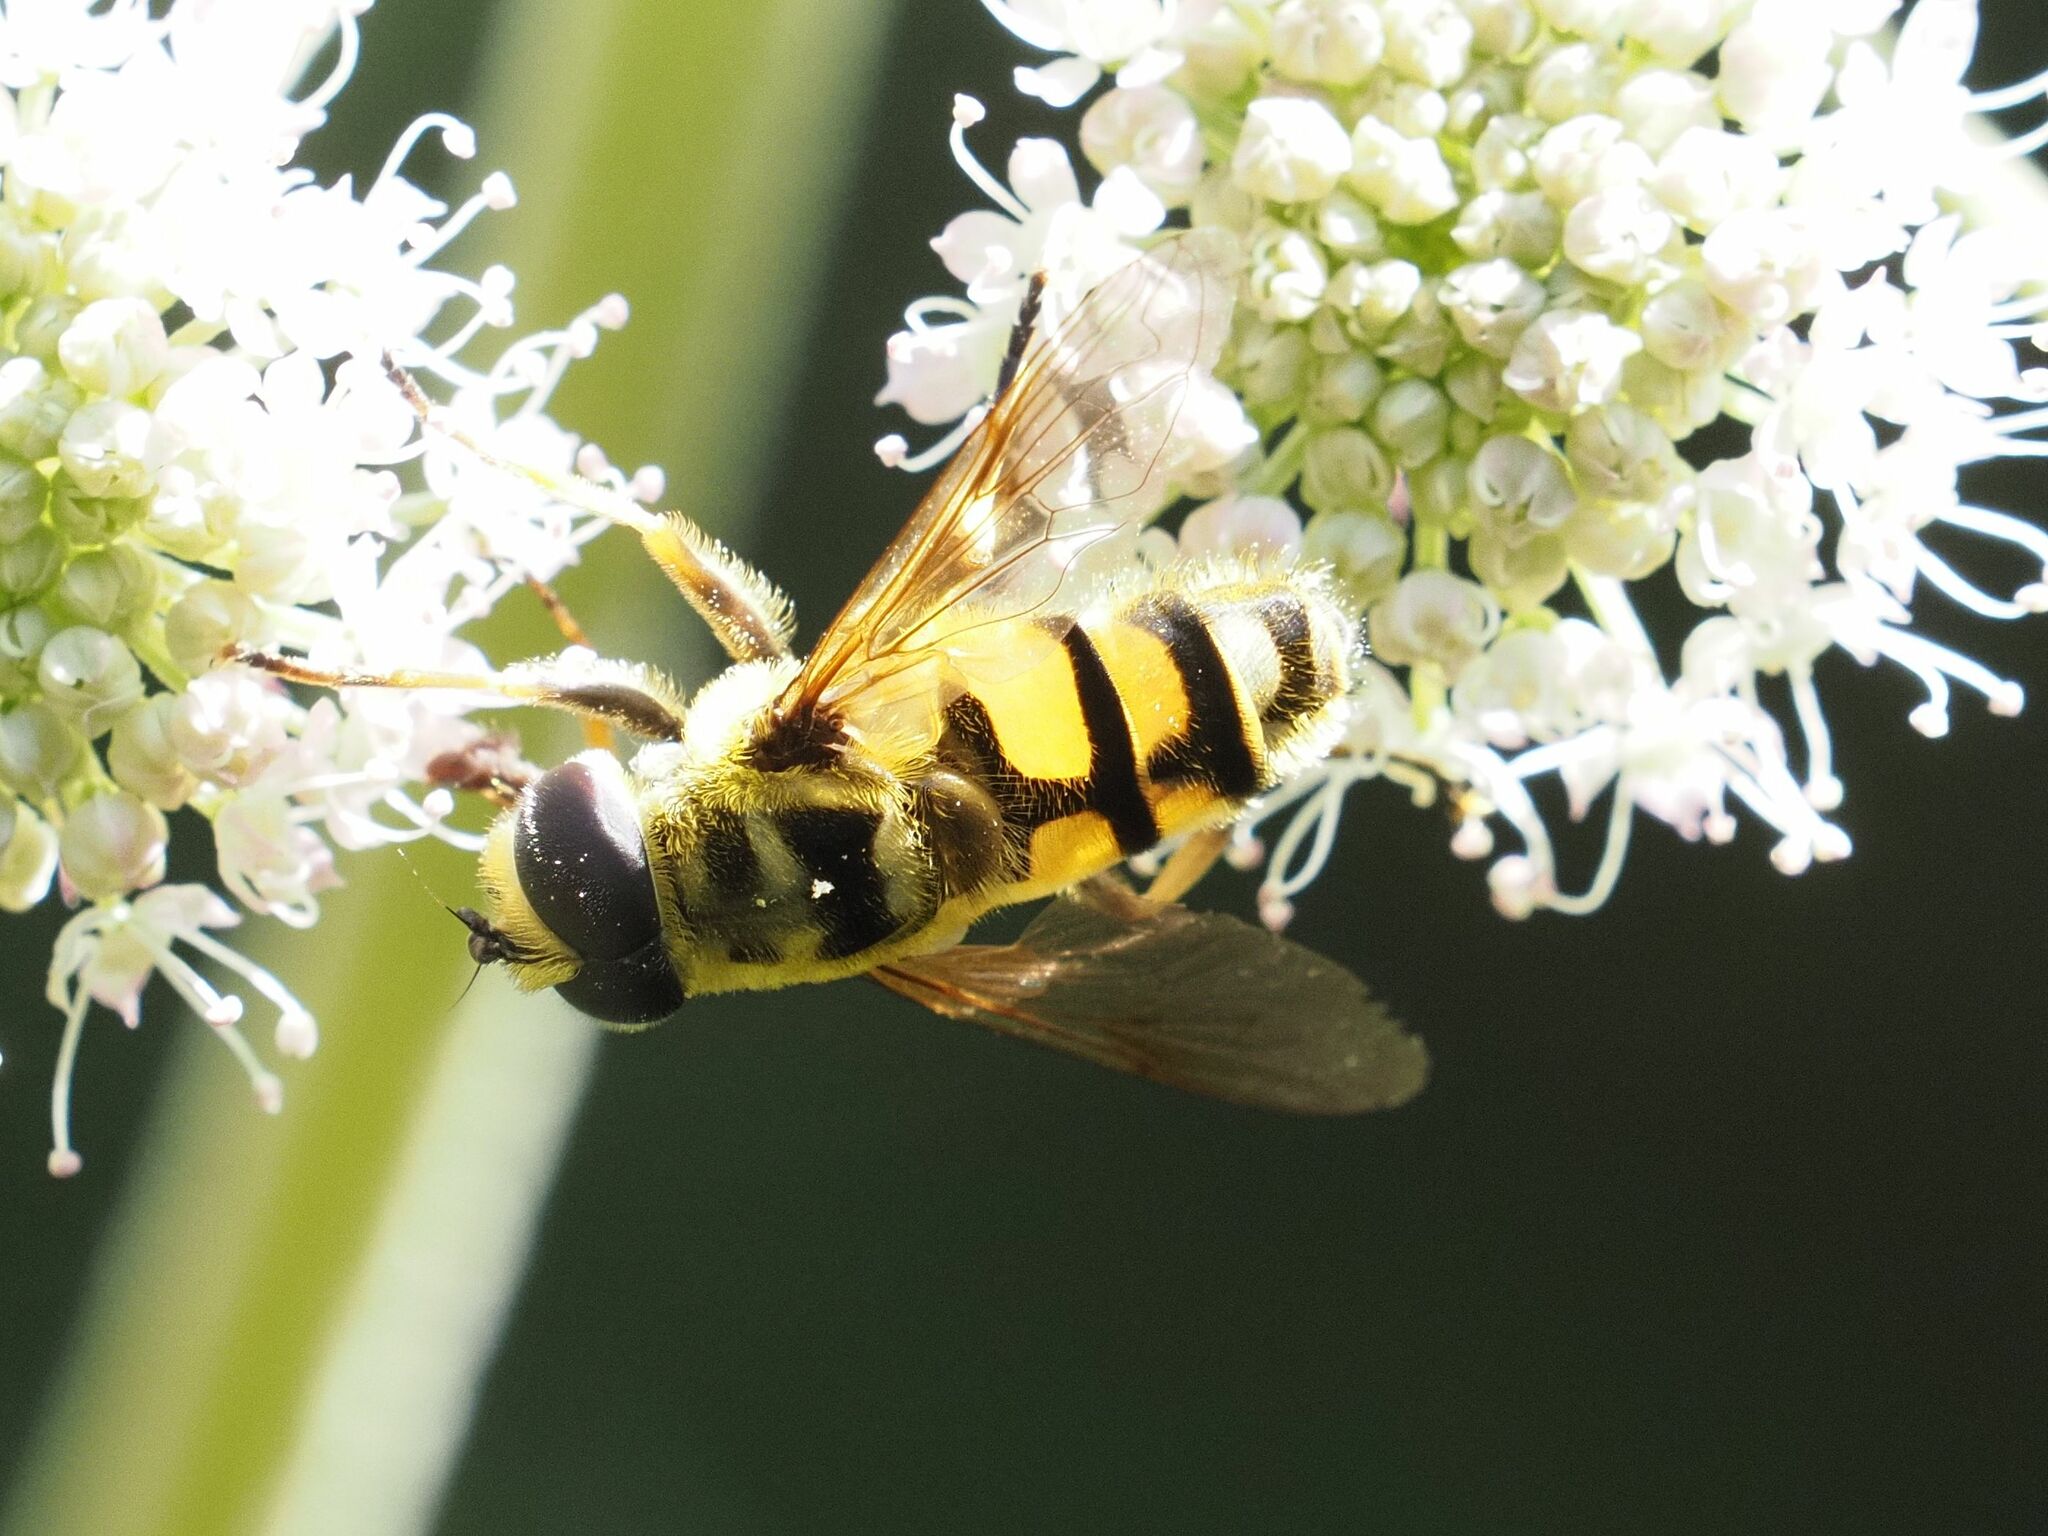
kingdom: Animalia
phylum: Arthropoda
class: Insecta
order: Diptera
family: Syrphidae
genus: Myathropa
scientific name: Myathropa florea
